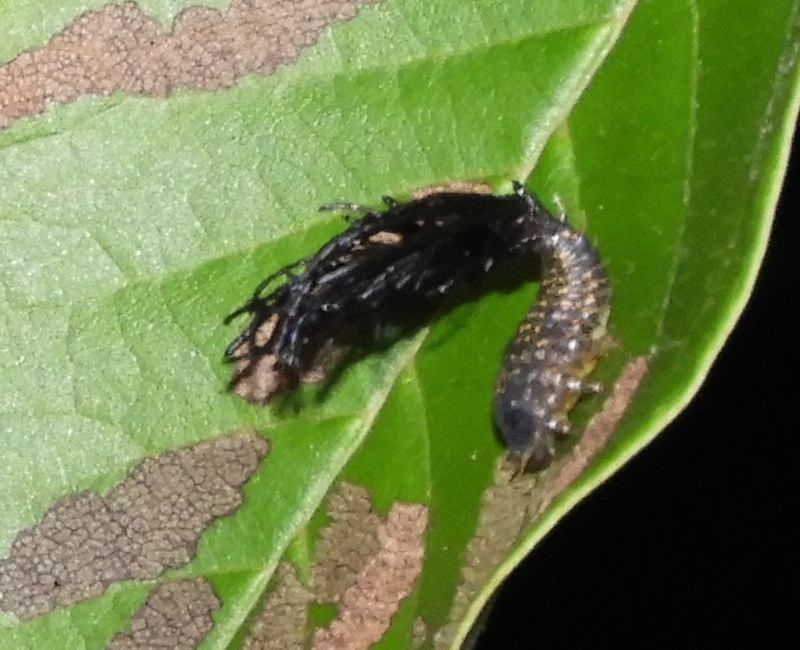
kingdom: Animalia
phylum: Arthropoda
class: Insecta
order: Coleoptera
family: Chrysomelidae
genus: Dorynota
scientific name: Dorynota aurita
